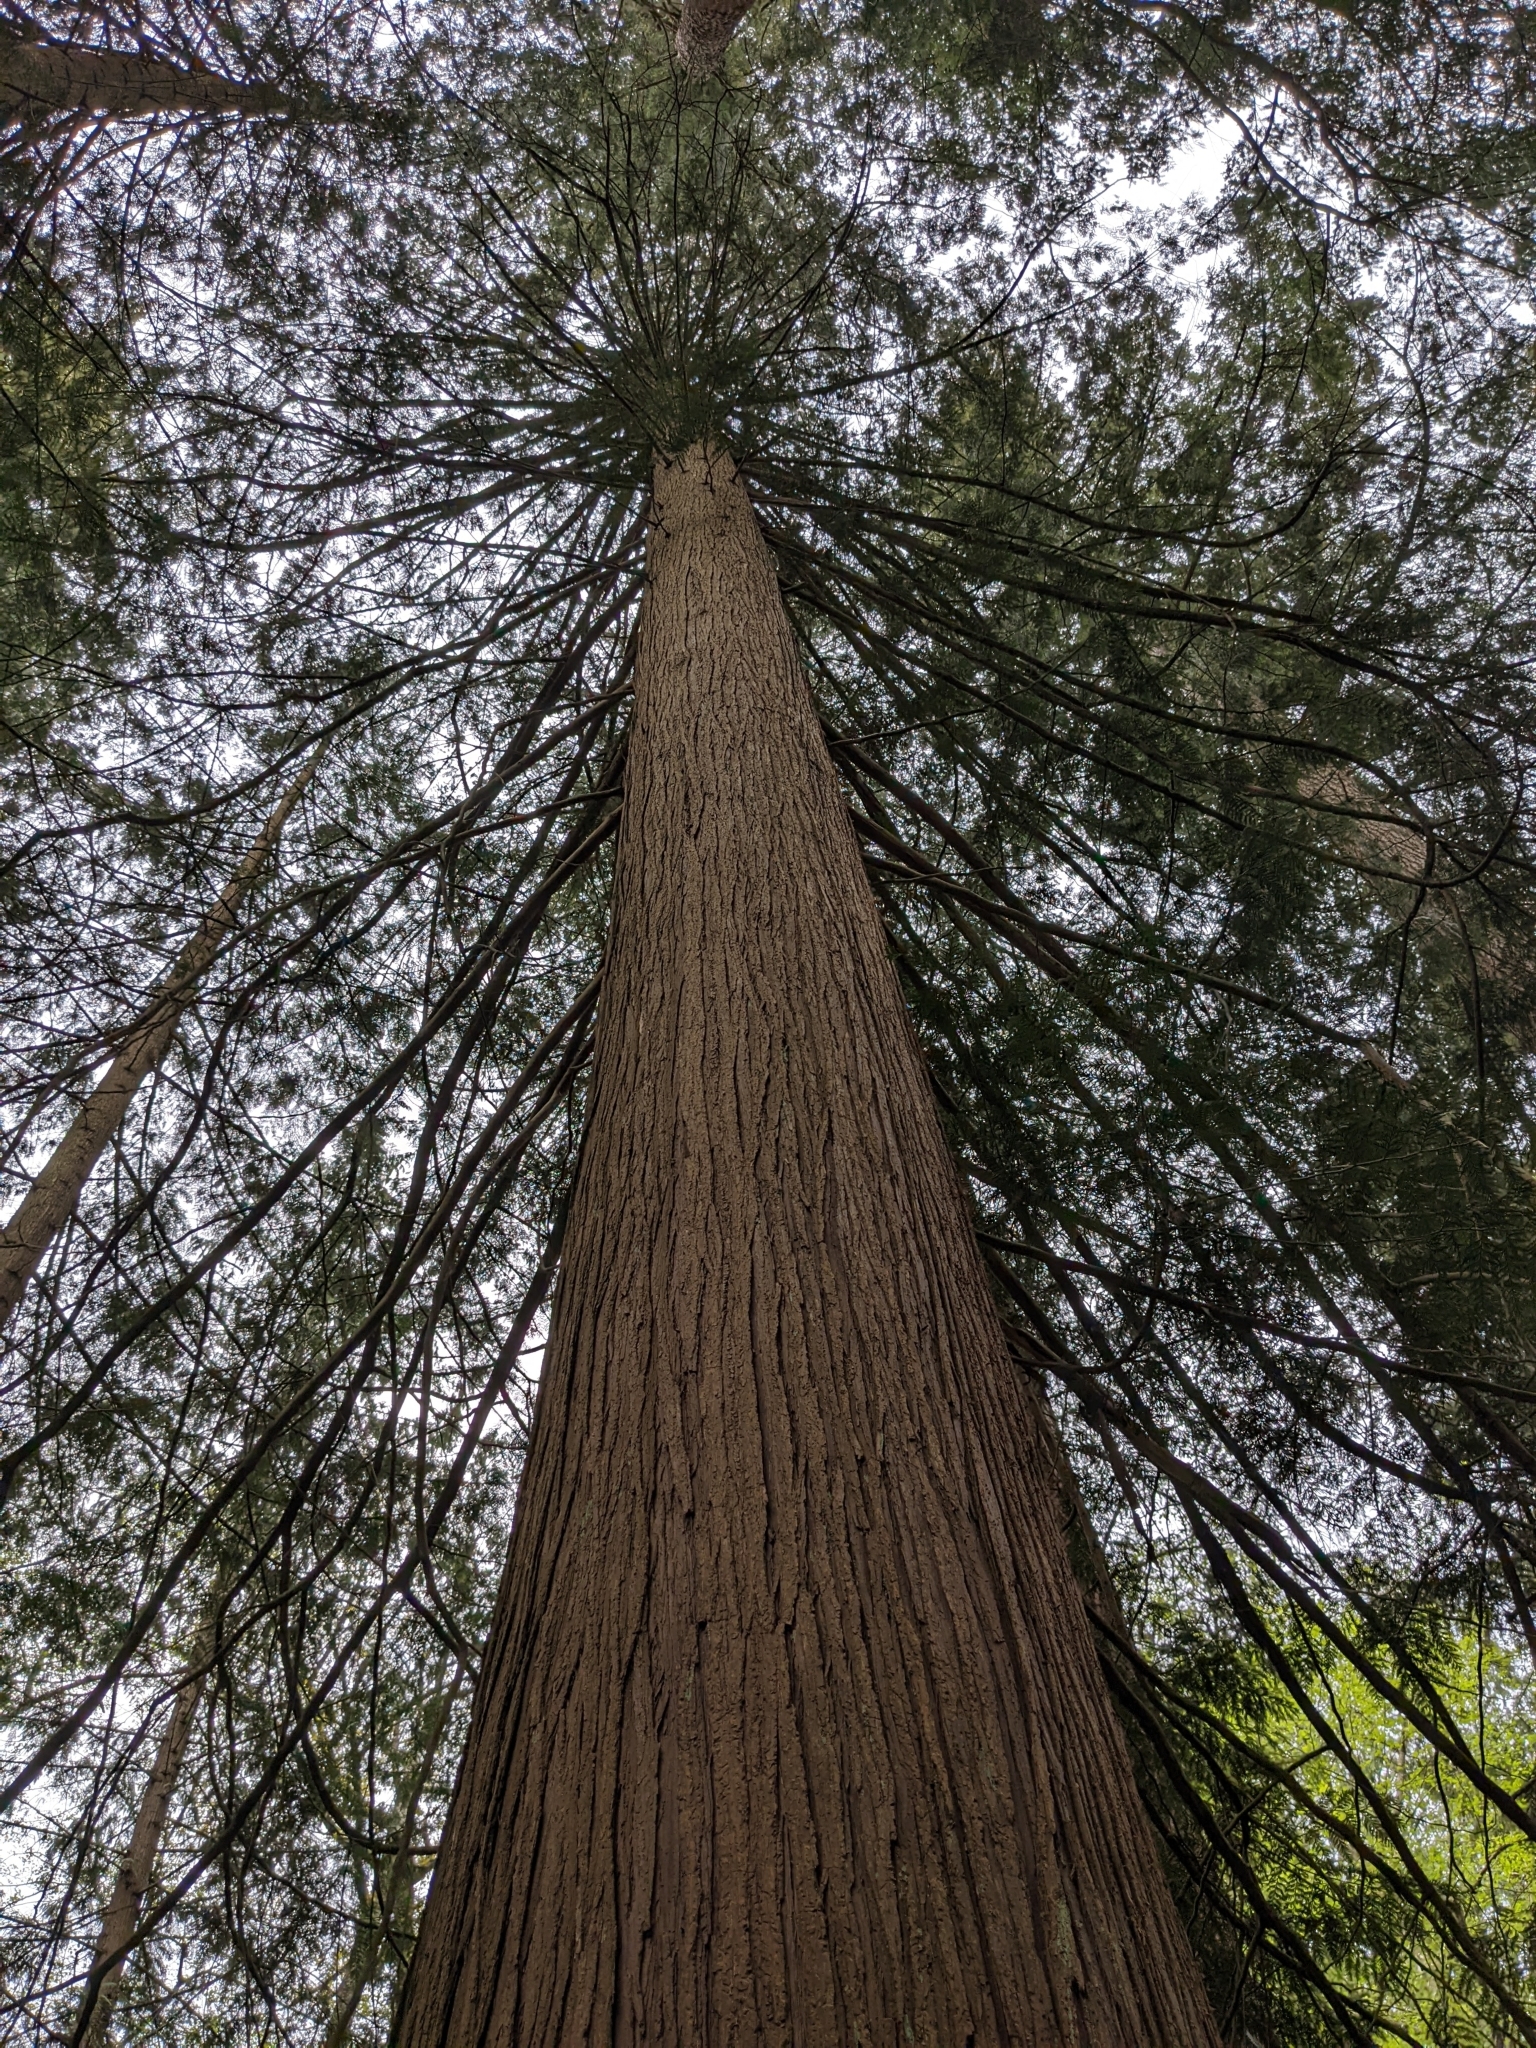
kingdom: Plantae
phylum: Tracheophyta
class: Pinopsida
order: Pinales
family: Cupressaceae
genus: Thuja
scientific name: Thuja plicata
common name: Western red-cedar
